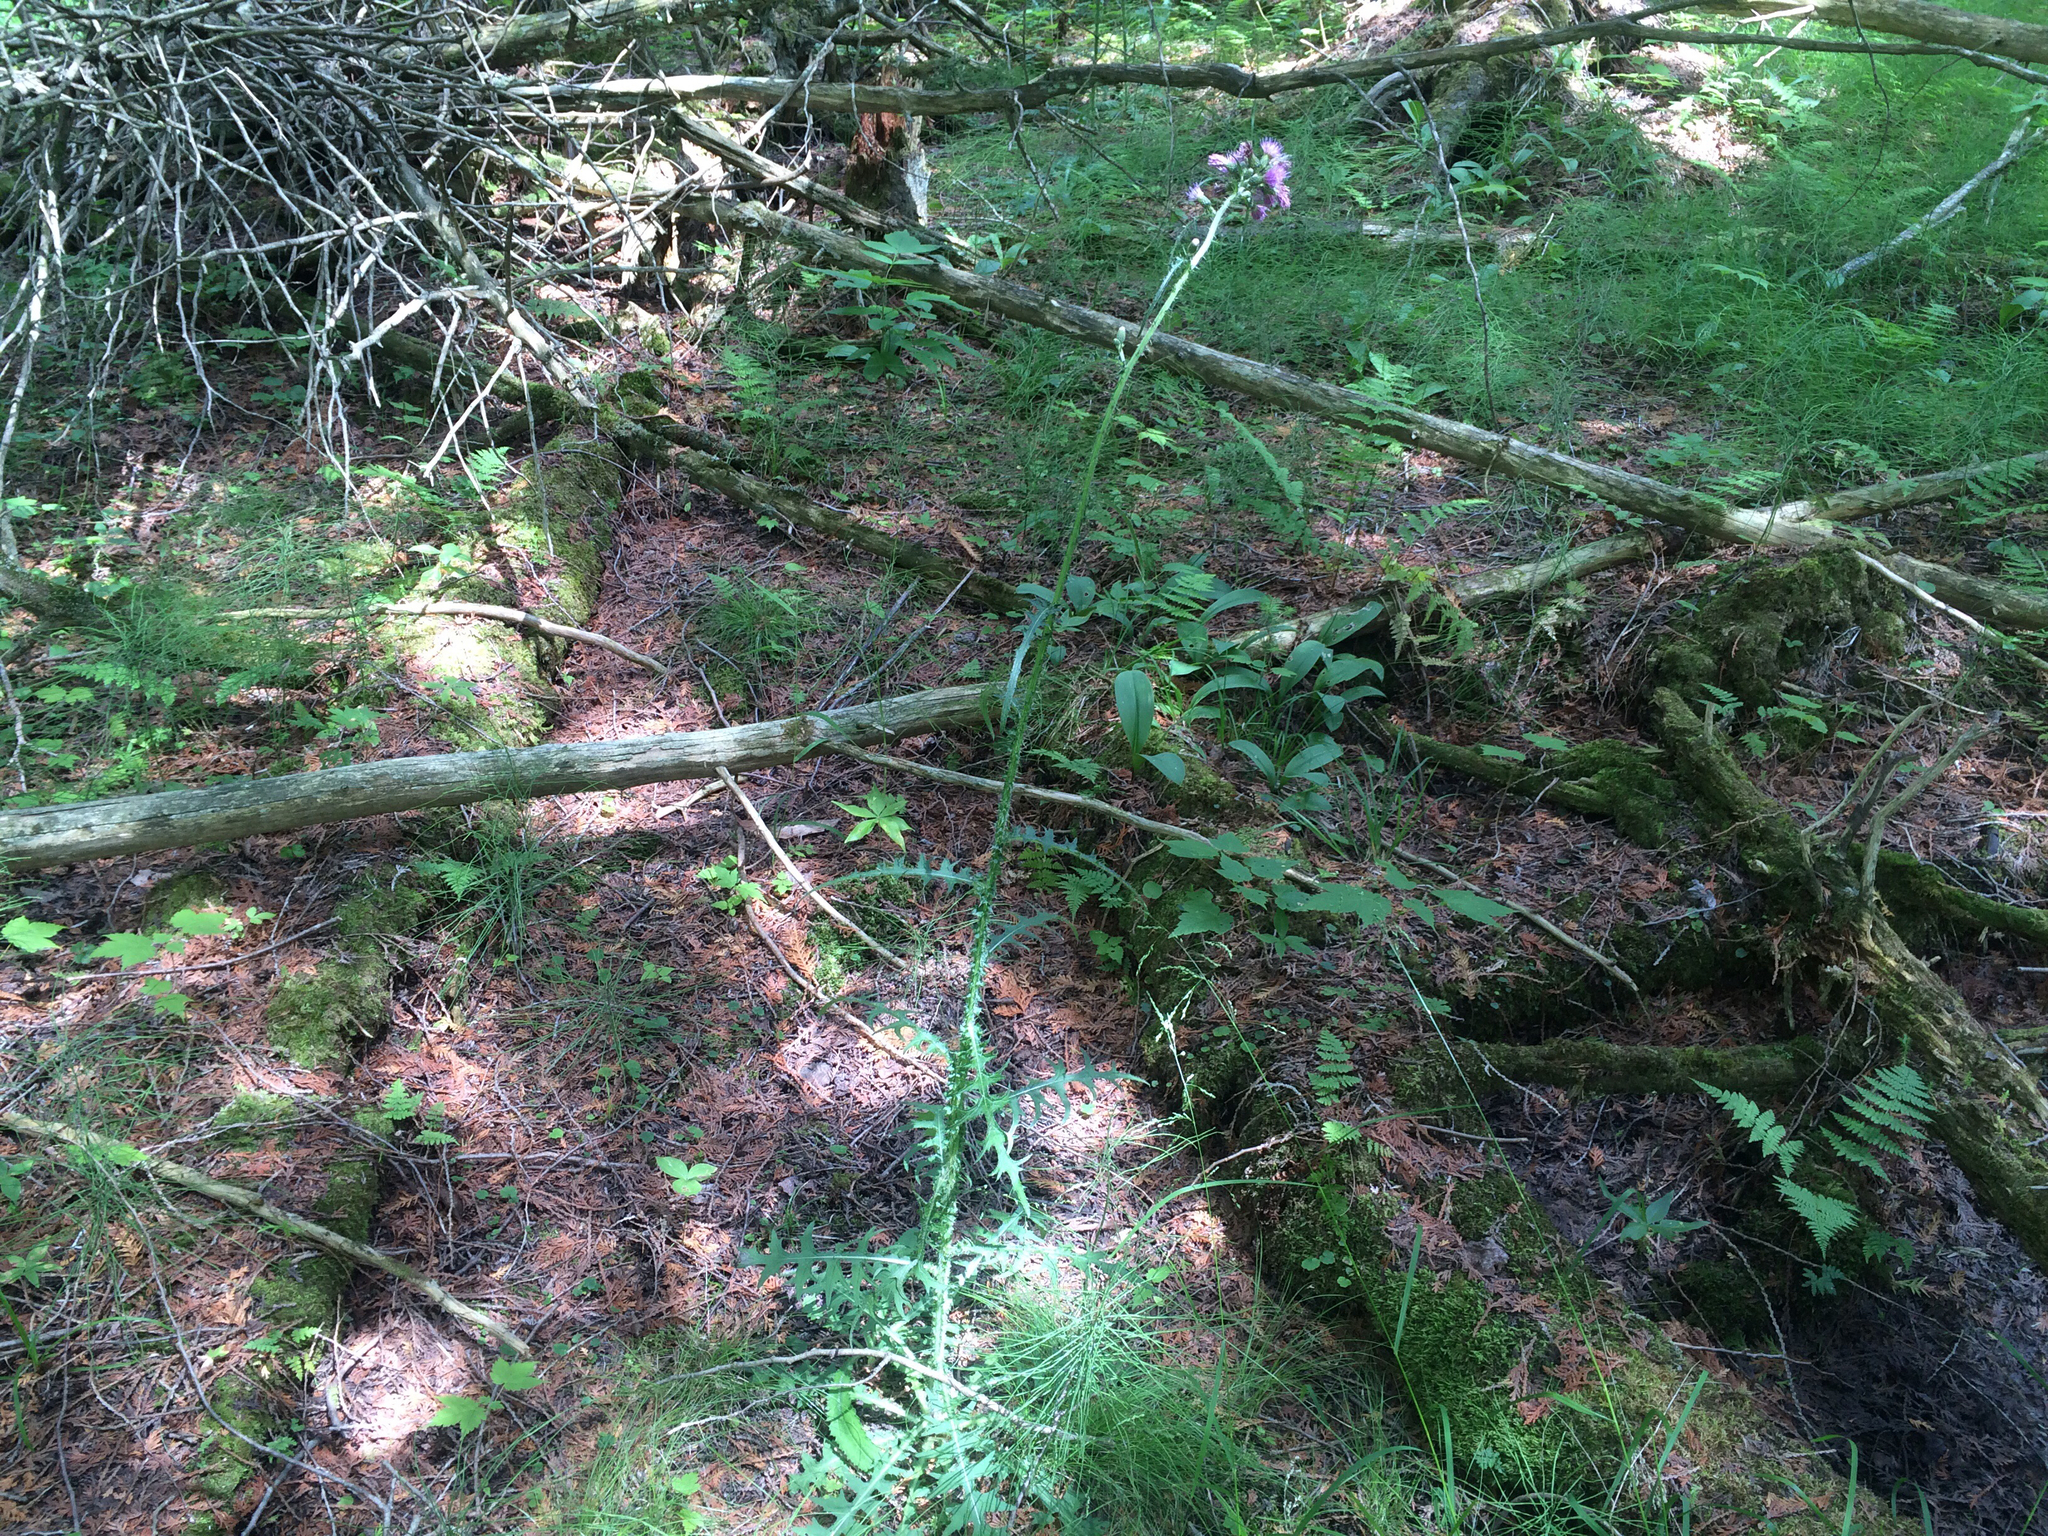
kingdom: Plantae
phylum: Tracheophyta
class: Magnoliopsida
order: Asterales
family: Asteraceae
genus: Cirsium
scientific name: Cirsium palustre
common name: Marsh thistle
